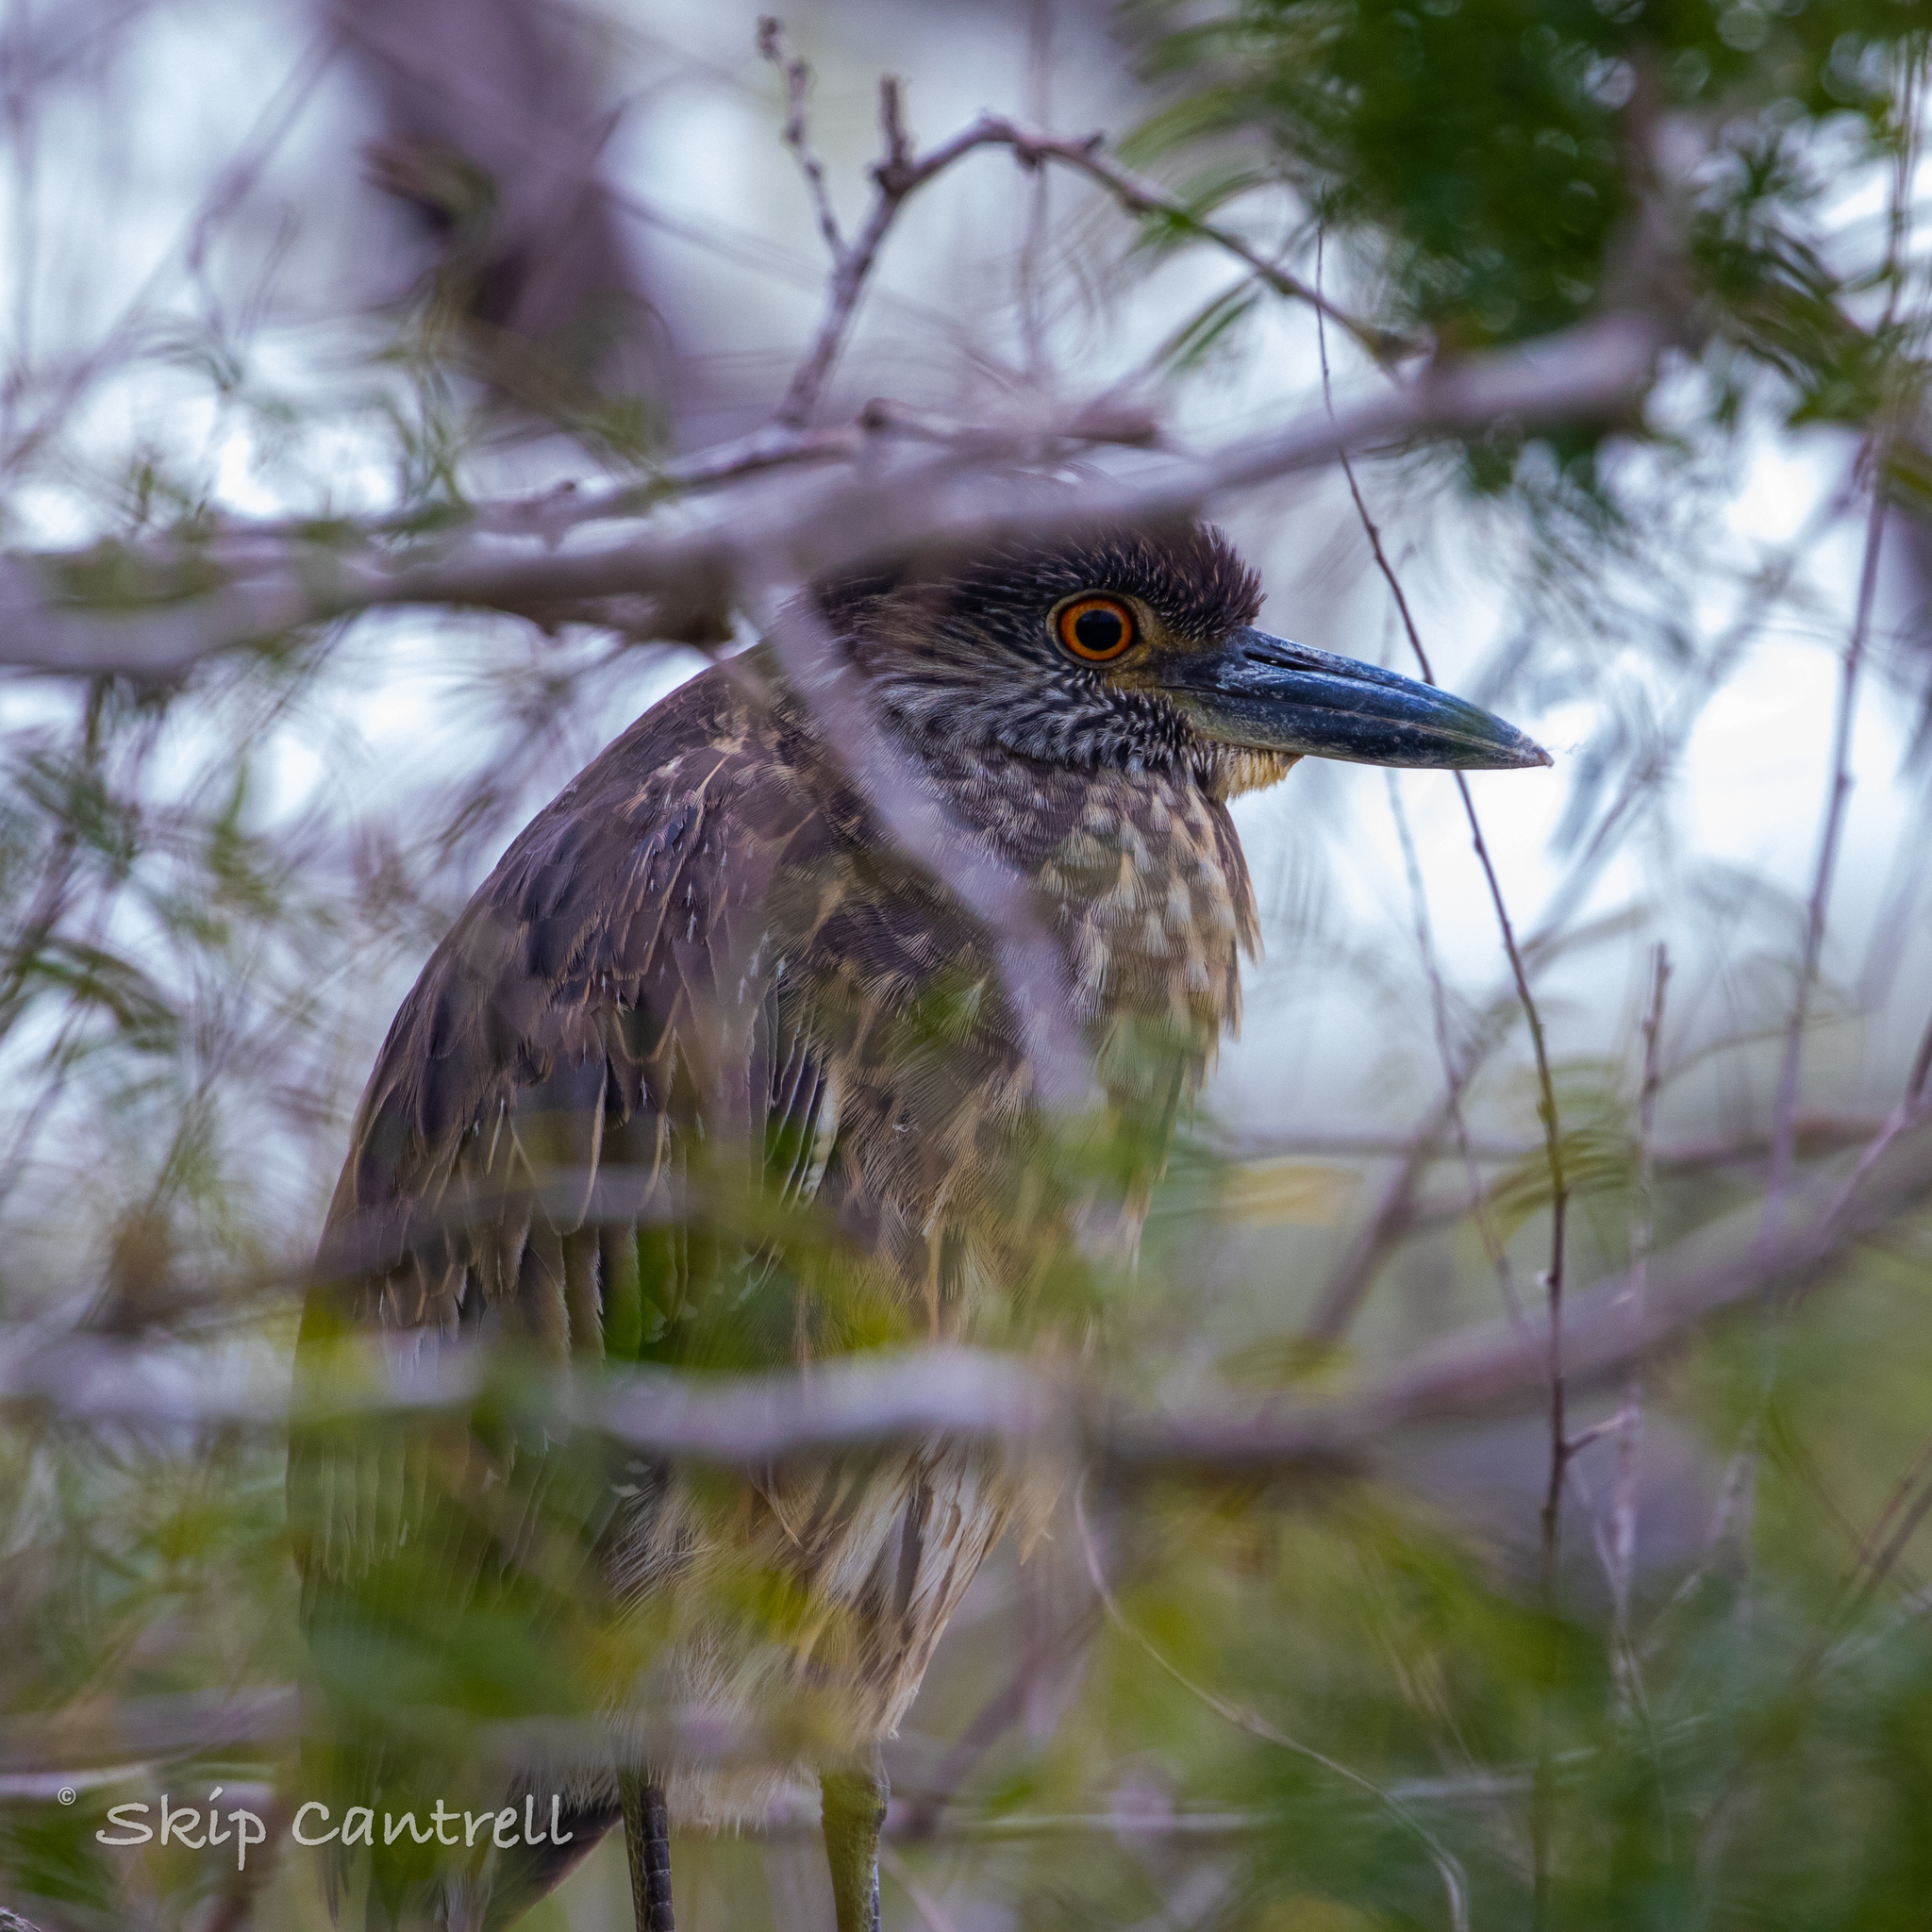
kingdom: Animalia
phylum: Chordata
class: Aves
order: Pelecaniformes
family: Ardeidae
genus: Nyctanassa
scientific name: Nyctanassa violacea
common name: Yellow-crowned night heron
